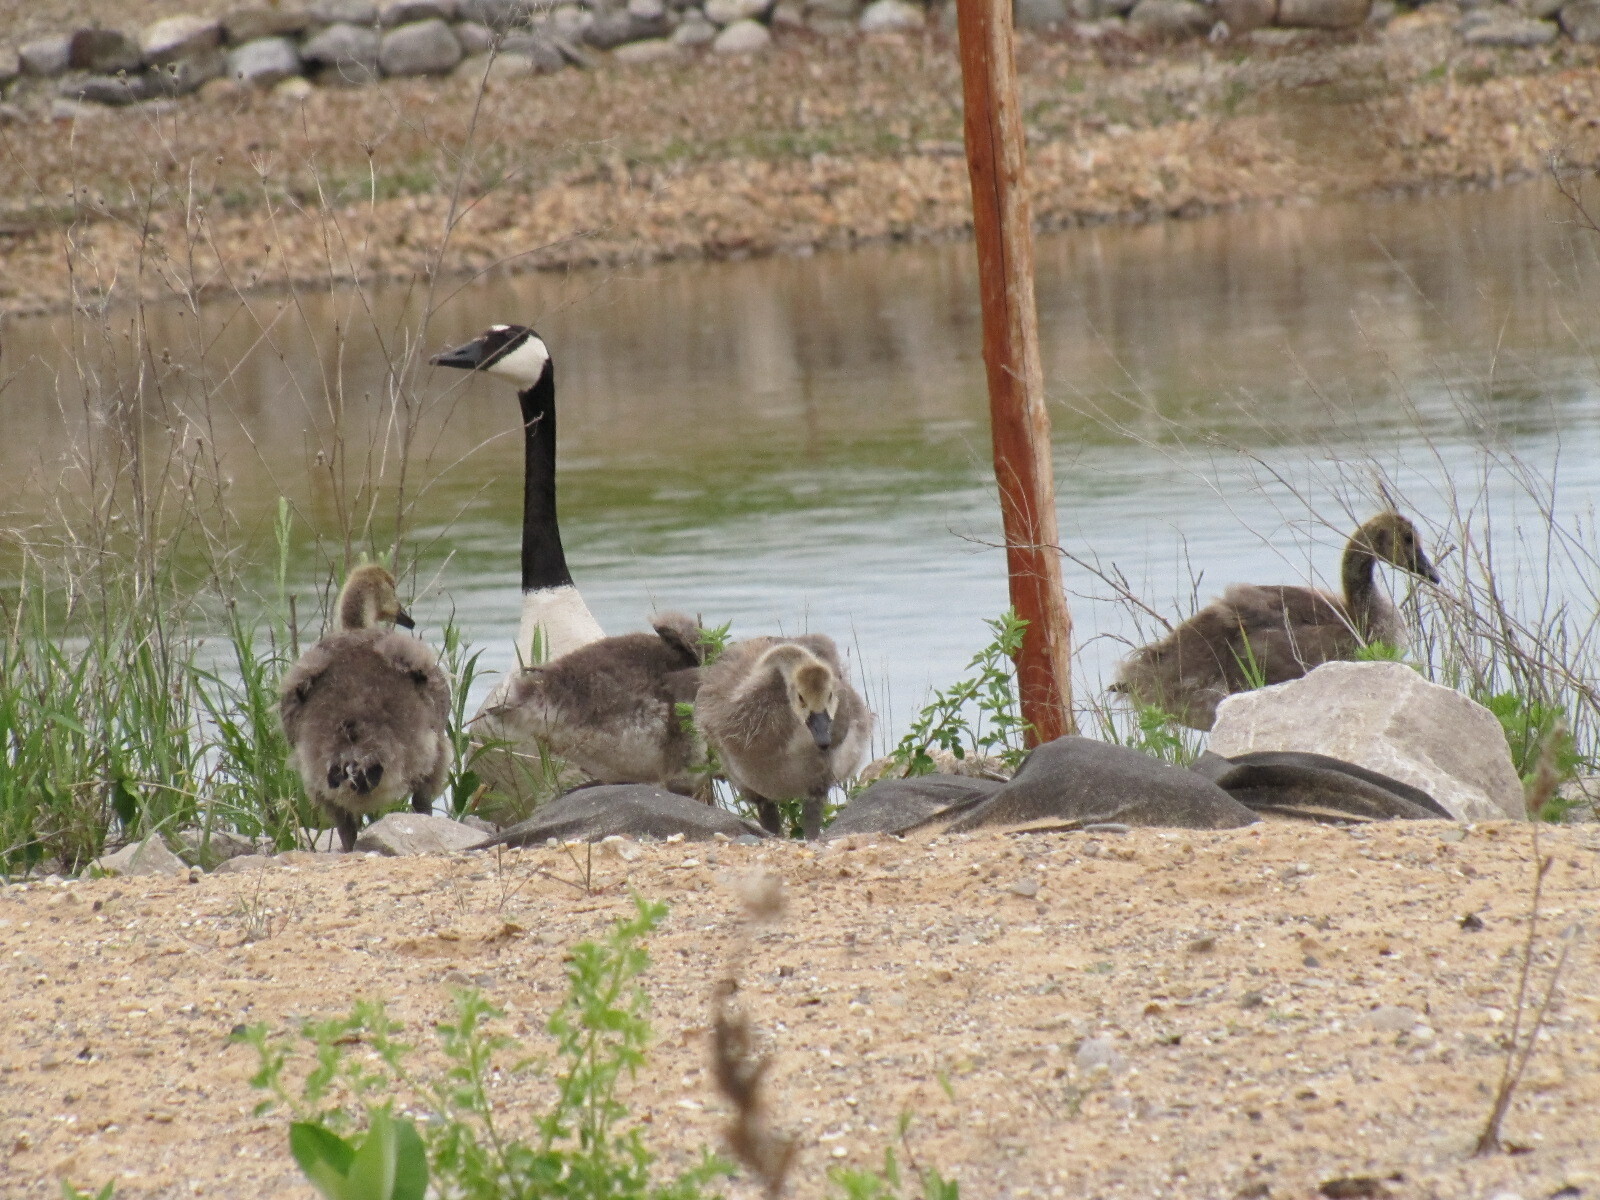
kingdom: Animalia
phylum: Chordata
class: Aves
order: Anseriformes
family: Anatidae
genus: Branta
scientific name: Branta canadensis
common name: Canada goose
